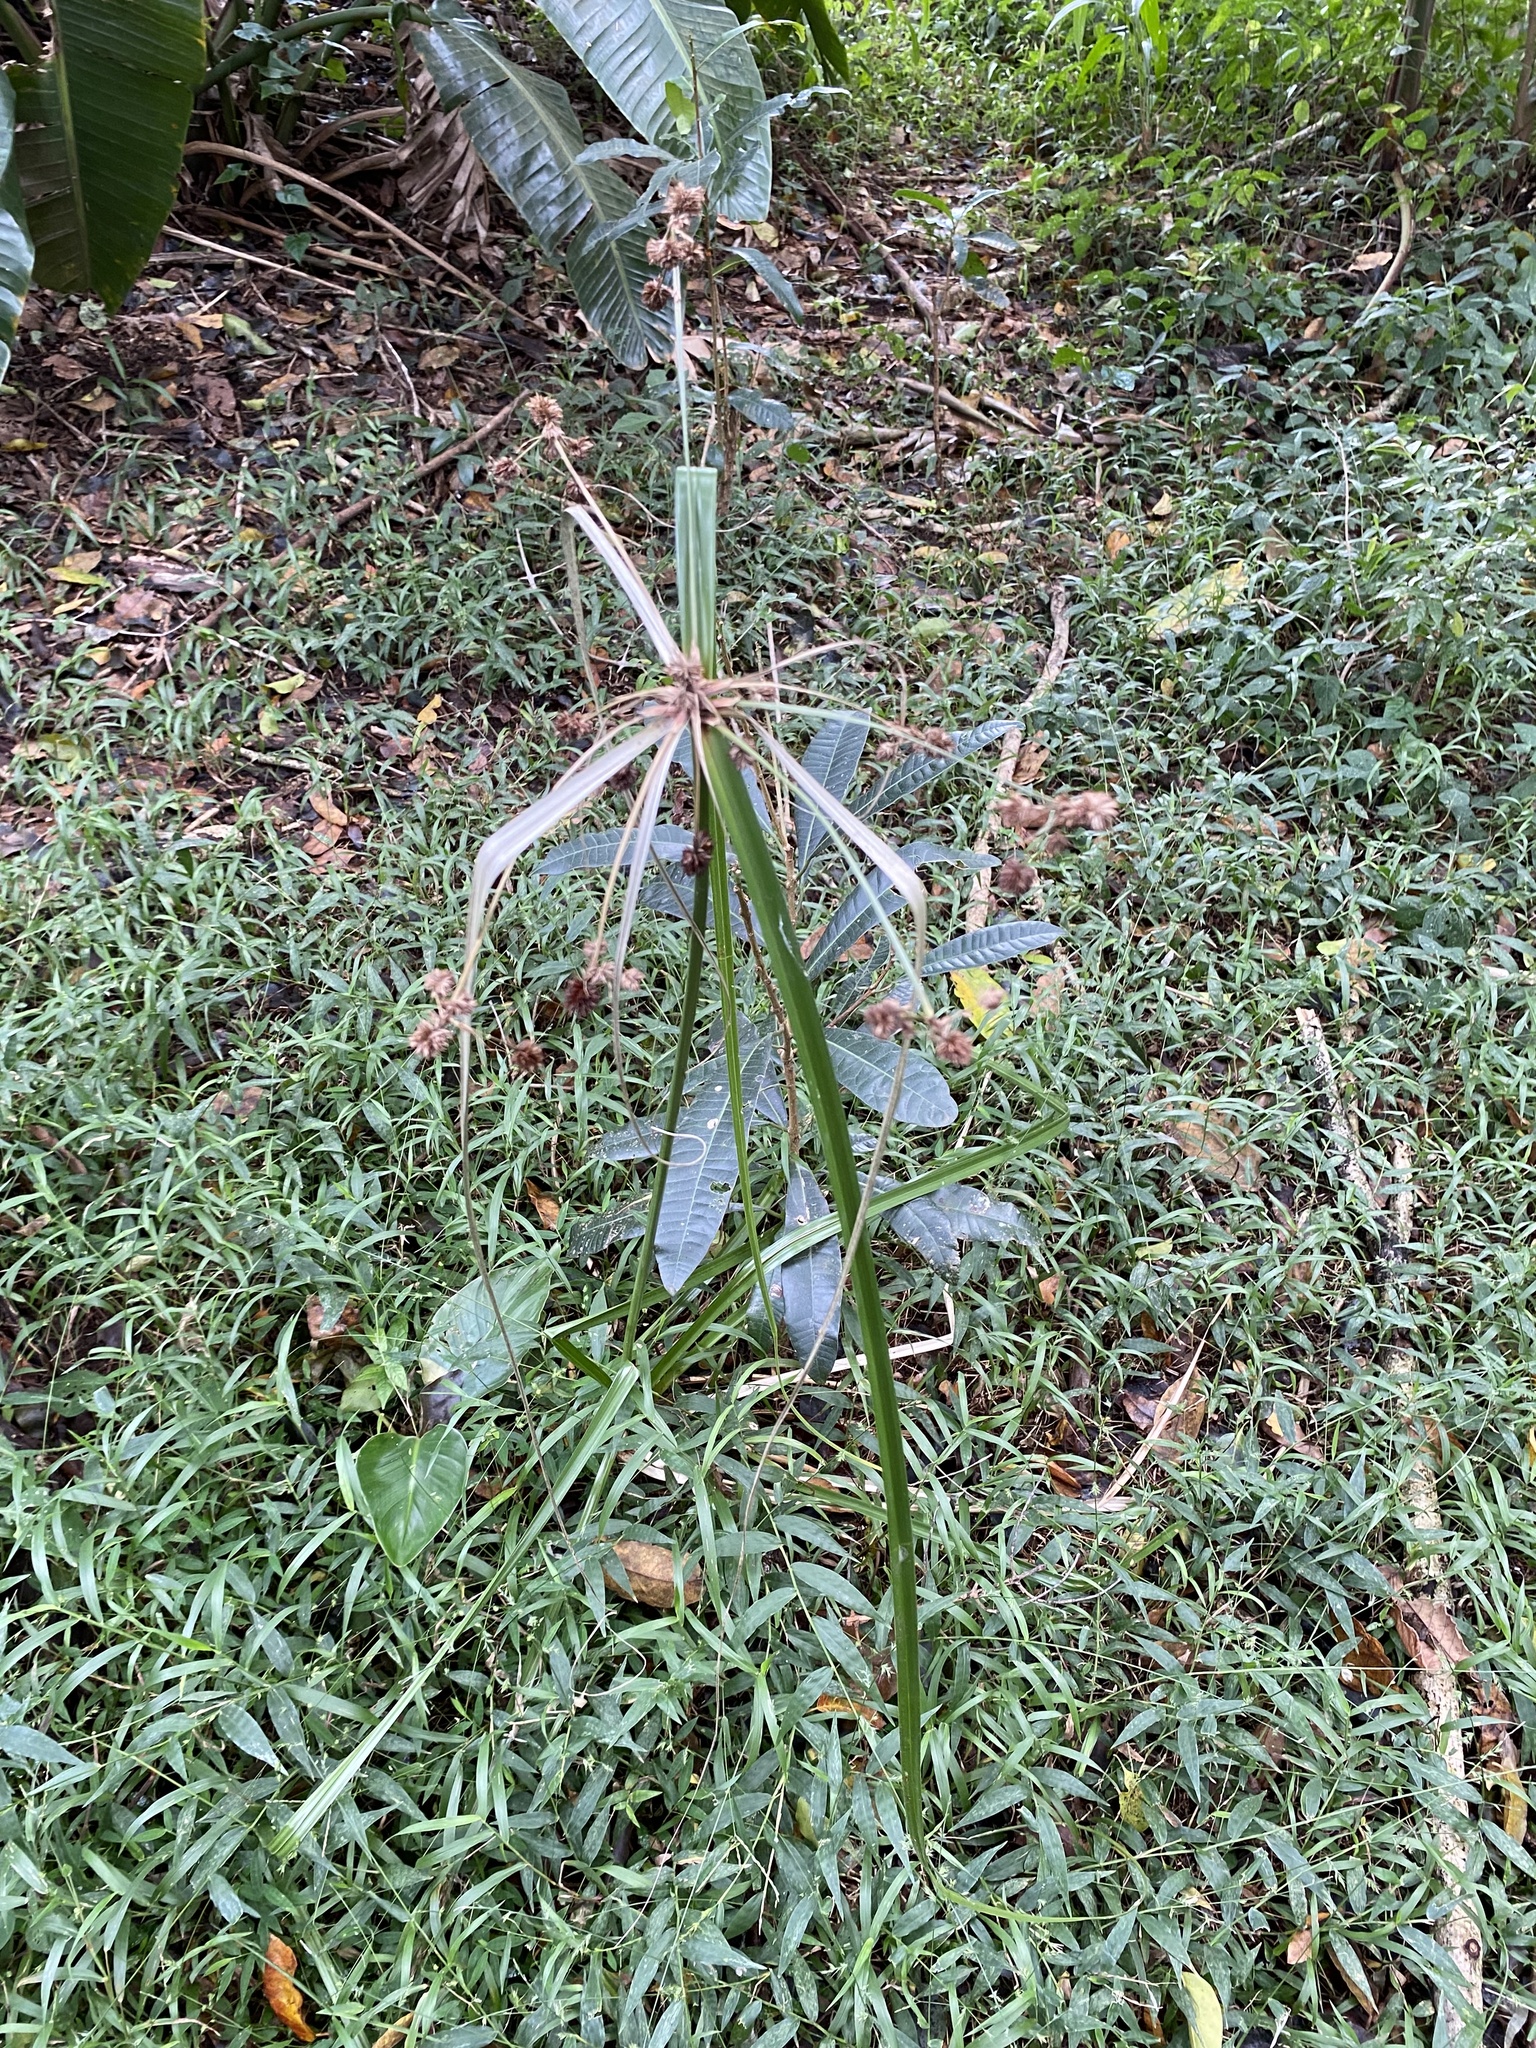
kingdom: Plantae
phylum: Tracheophyta
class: Liliopsida
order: Poales
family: Cyperaceae
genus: Cyperus
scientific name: Cyperus solidus
